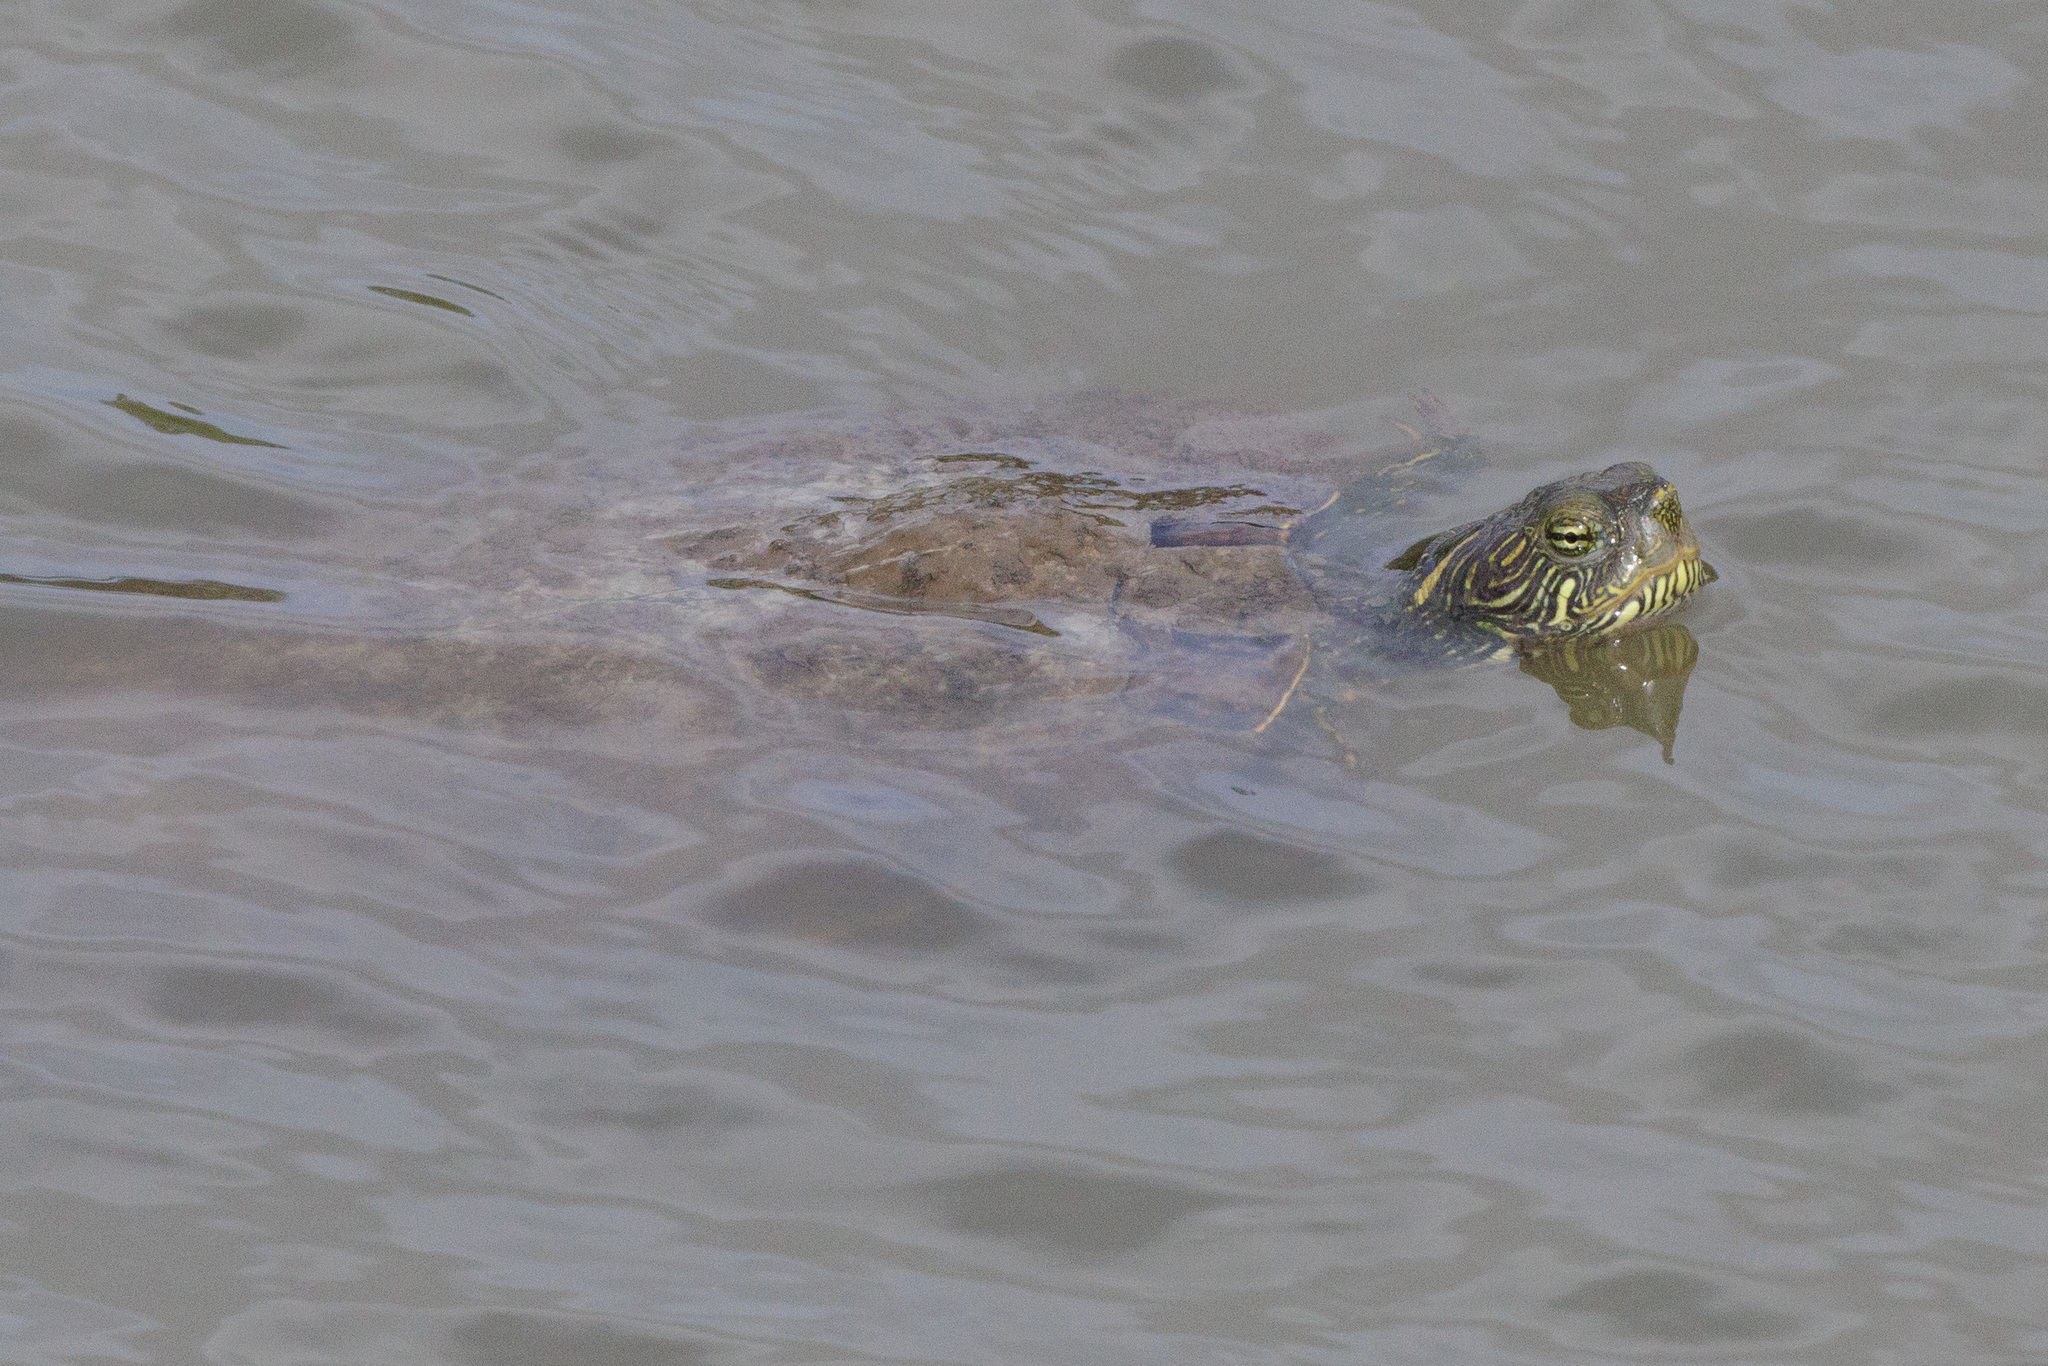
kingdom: Animalia
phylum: Chordata
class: Testudines
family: Emydidae
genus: Pseudemys
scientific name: Pseudemys texana
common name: Texas river cooter
